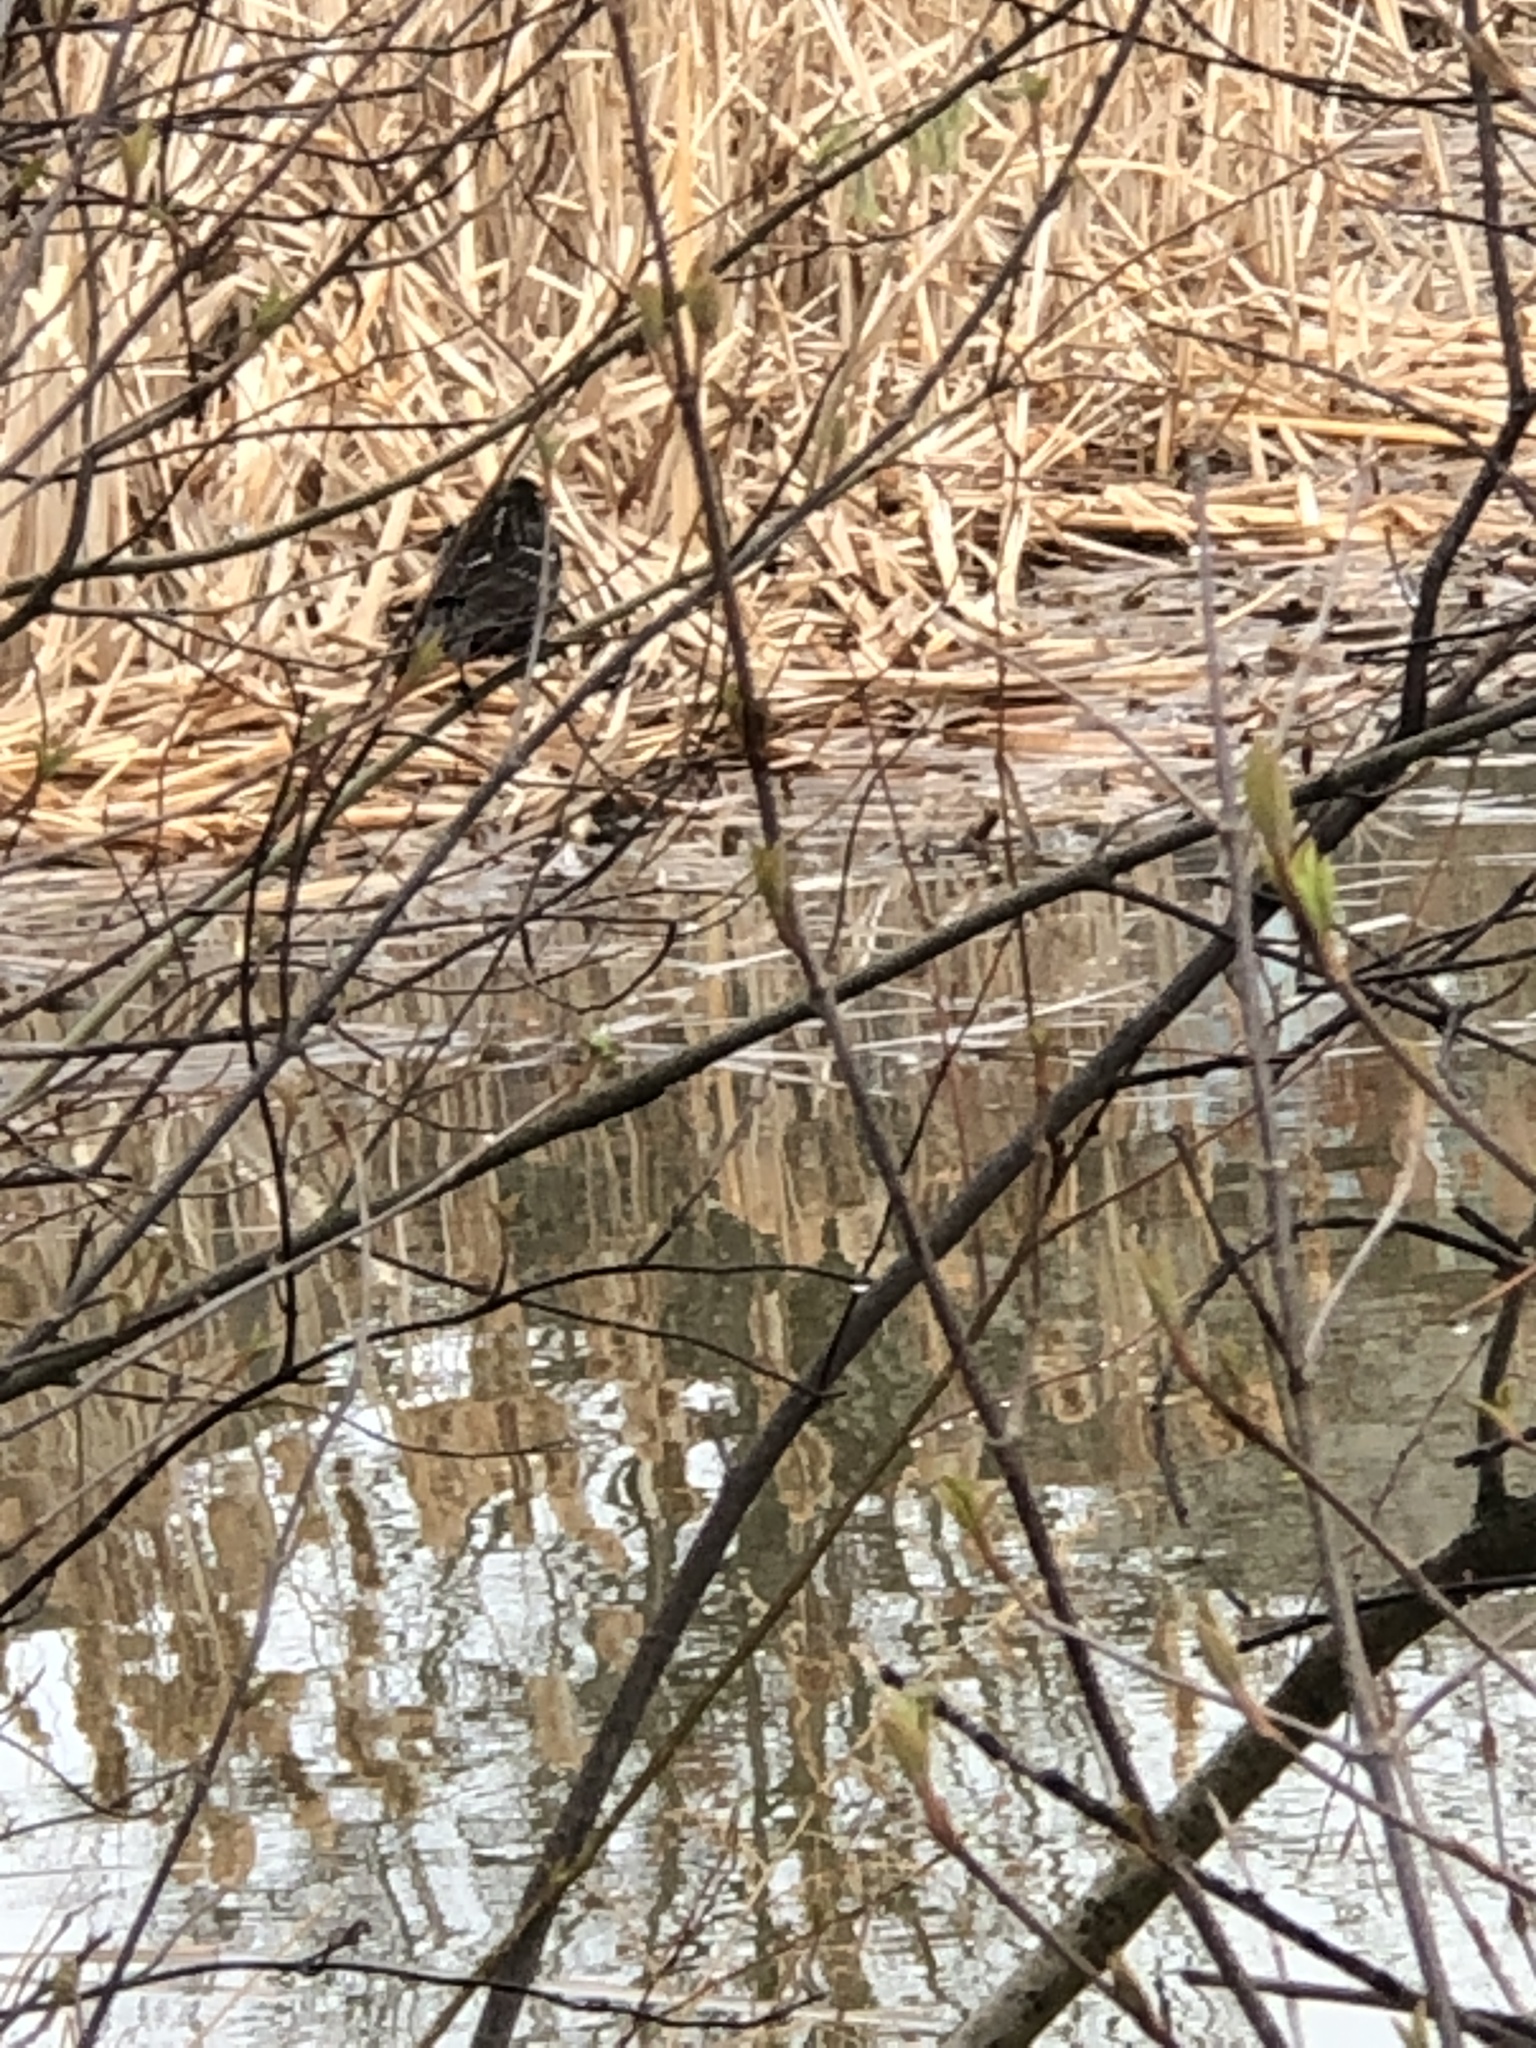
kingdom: Animalia
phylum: Chordata
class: Aves
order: Passeriformes
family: Icteridae
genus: Agelaius
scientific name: Agelaius phoeniceus
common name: Red-winged blackbird
